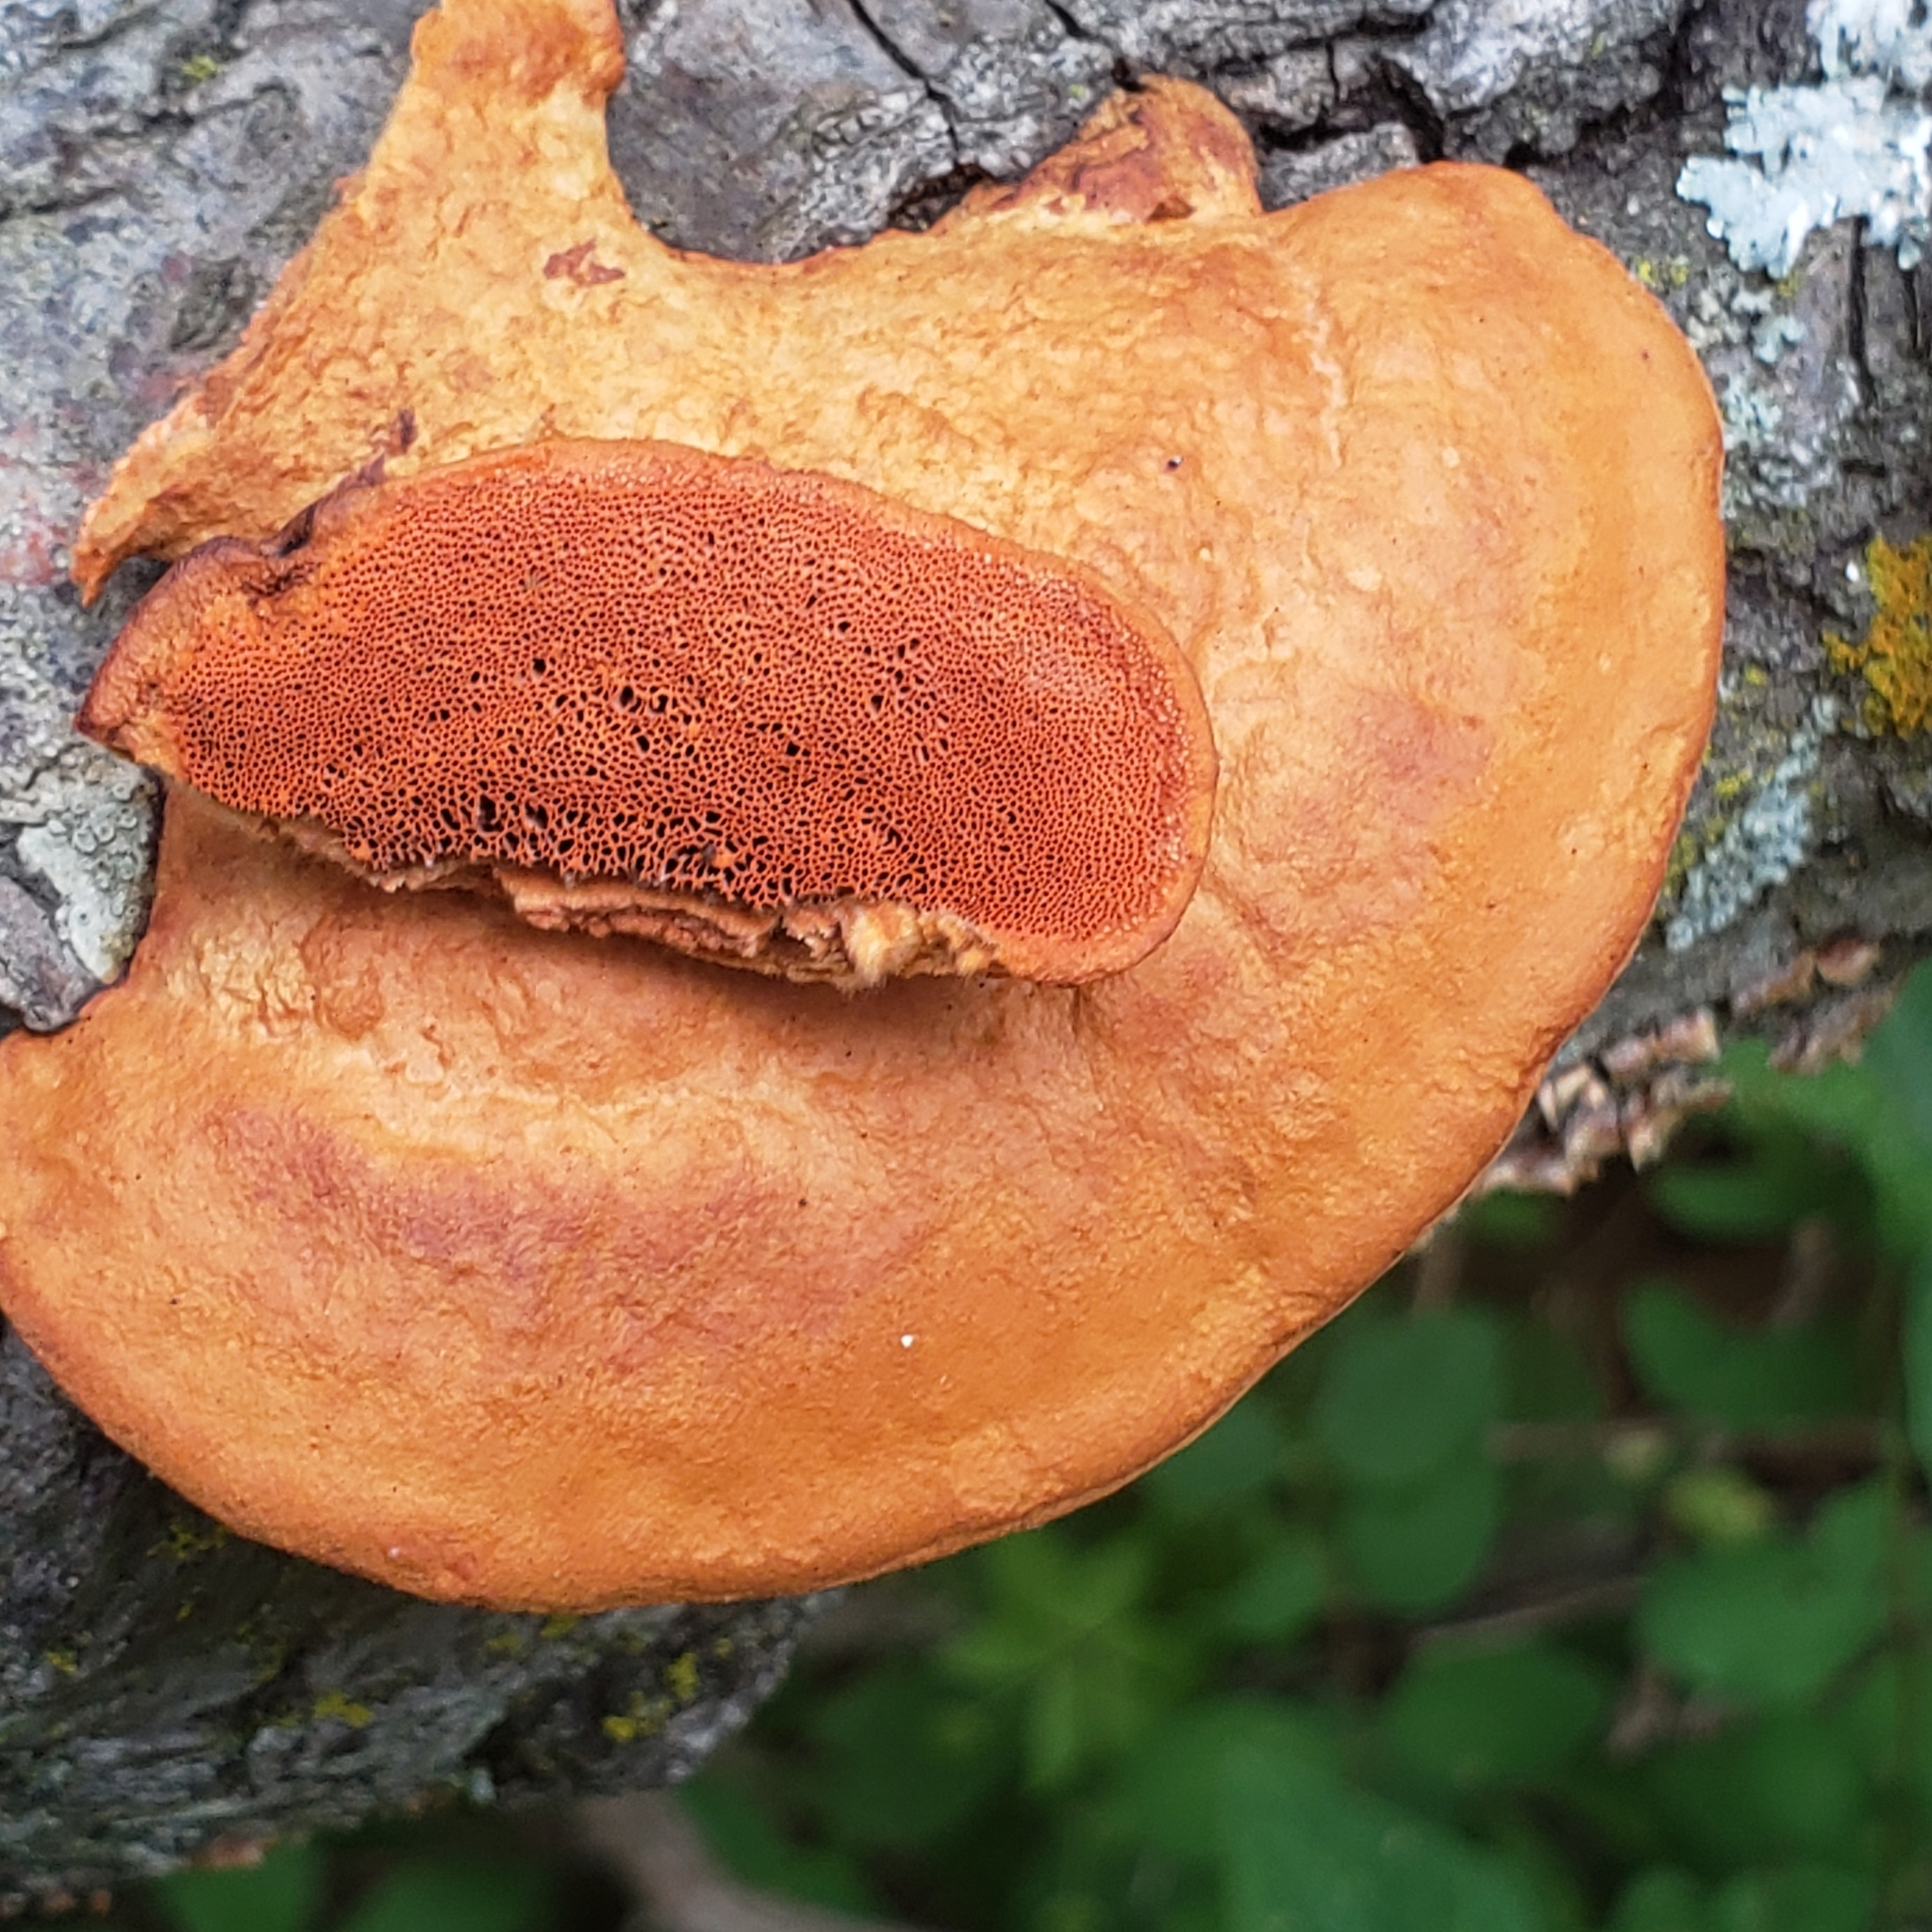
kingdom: Fungi
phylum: Basidiomycota
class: Agaricomycetes
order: Polyporales
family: Polyporaceae
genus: Trametes
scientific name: Trametes cinnabarina
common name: Northern cinnabar polypore
